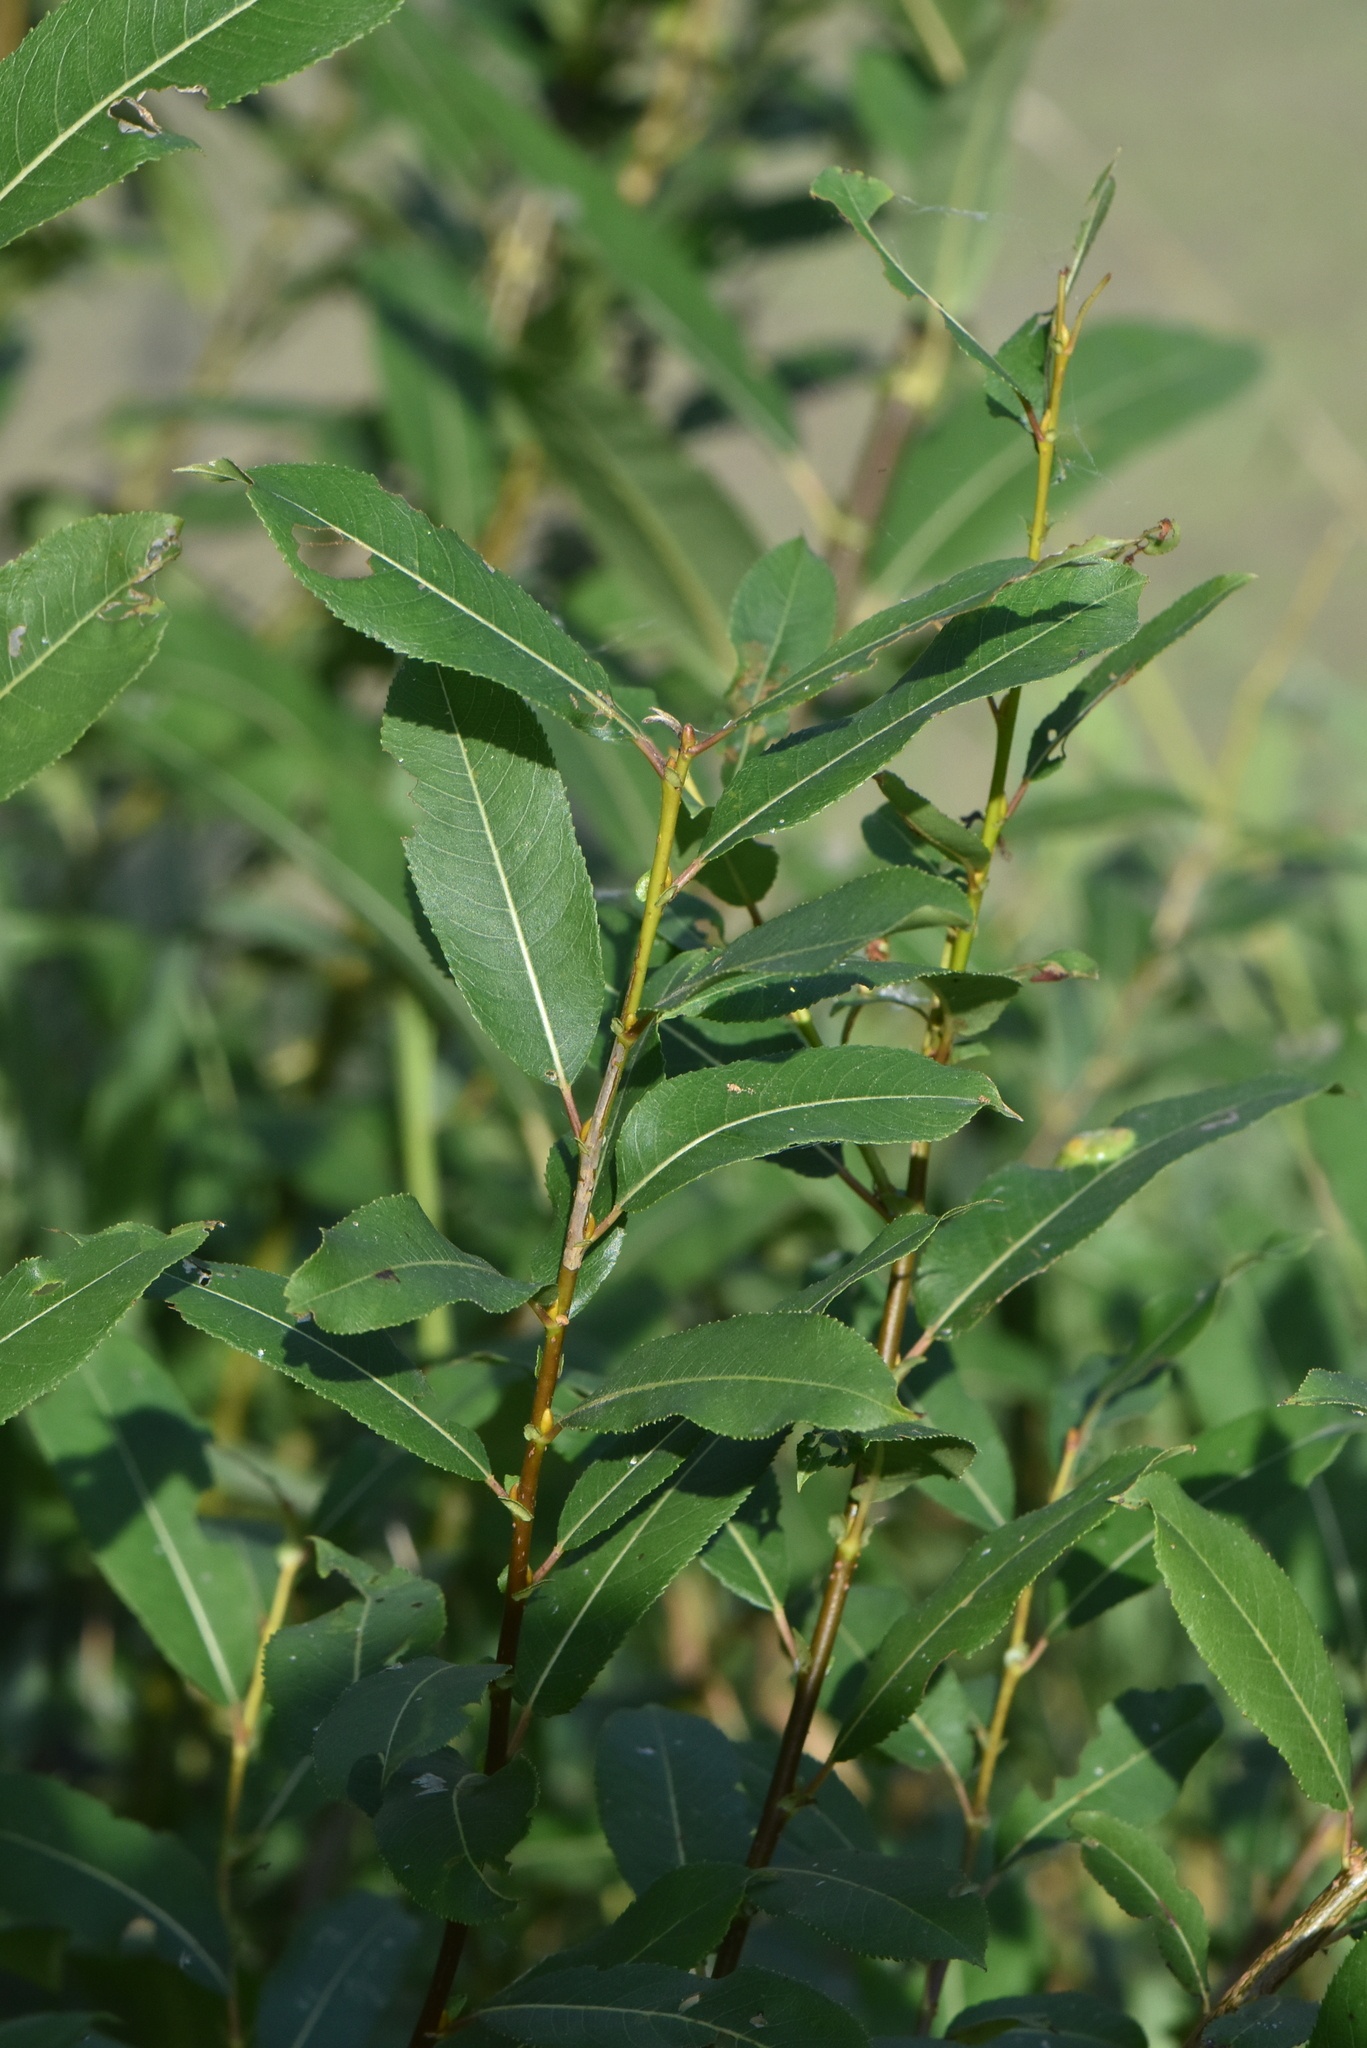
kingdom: Plantae
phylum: Tracheophyta
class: Magnoliopsida
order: Malpighiales
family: Salicaceae
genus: Salix
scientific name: Salix triandra
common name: Almond willow
